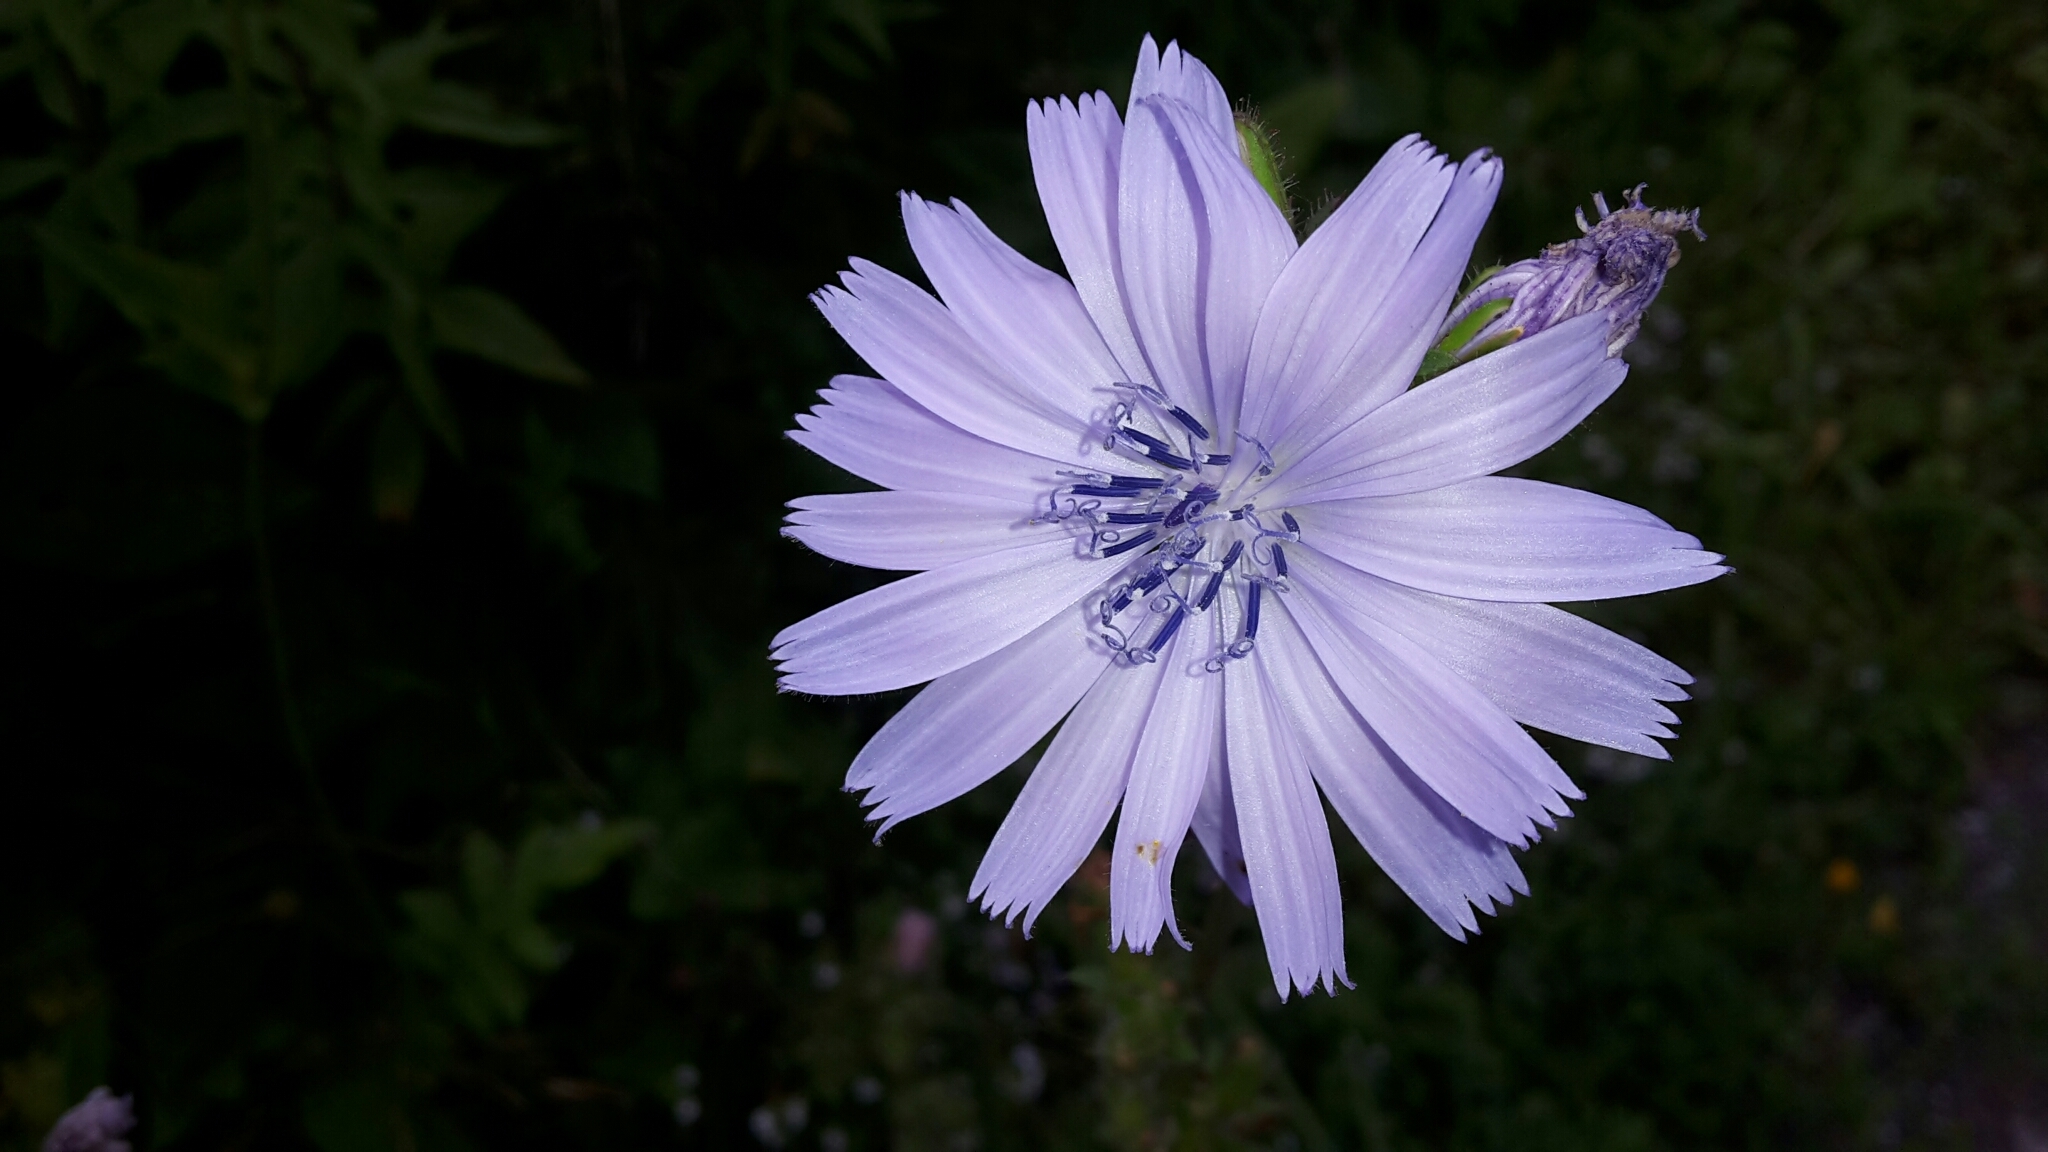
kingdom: Plantae
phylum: Tracheophyta
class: Magnoliopsida
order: Asterales
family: Asteraceae
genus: Cichorium
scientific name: Cichorium intybus
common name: Chicory
